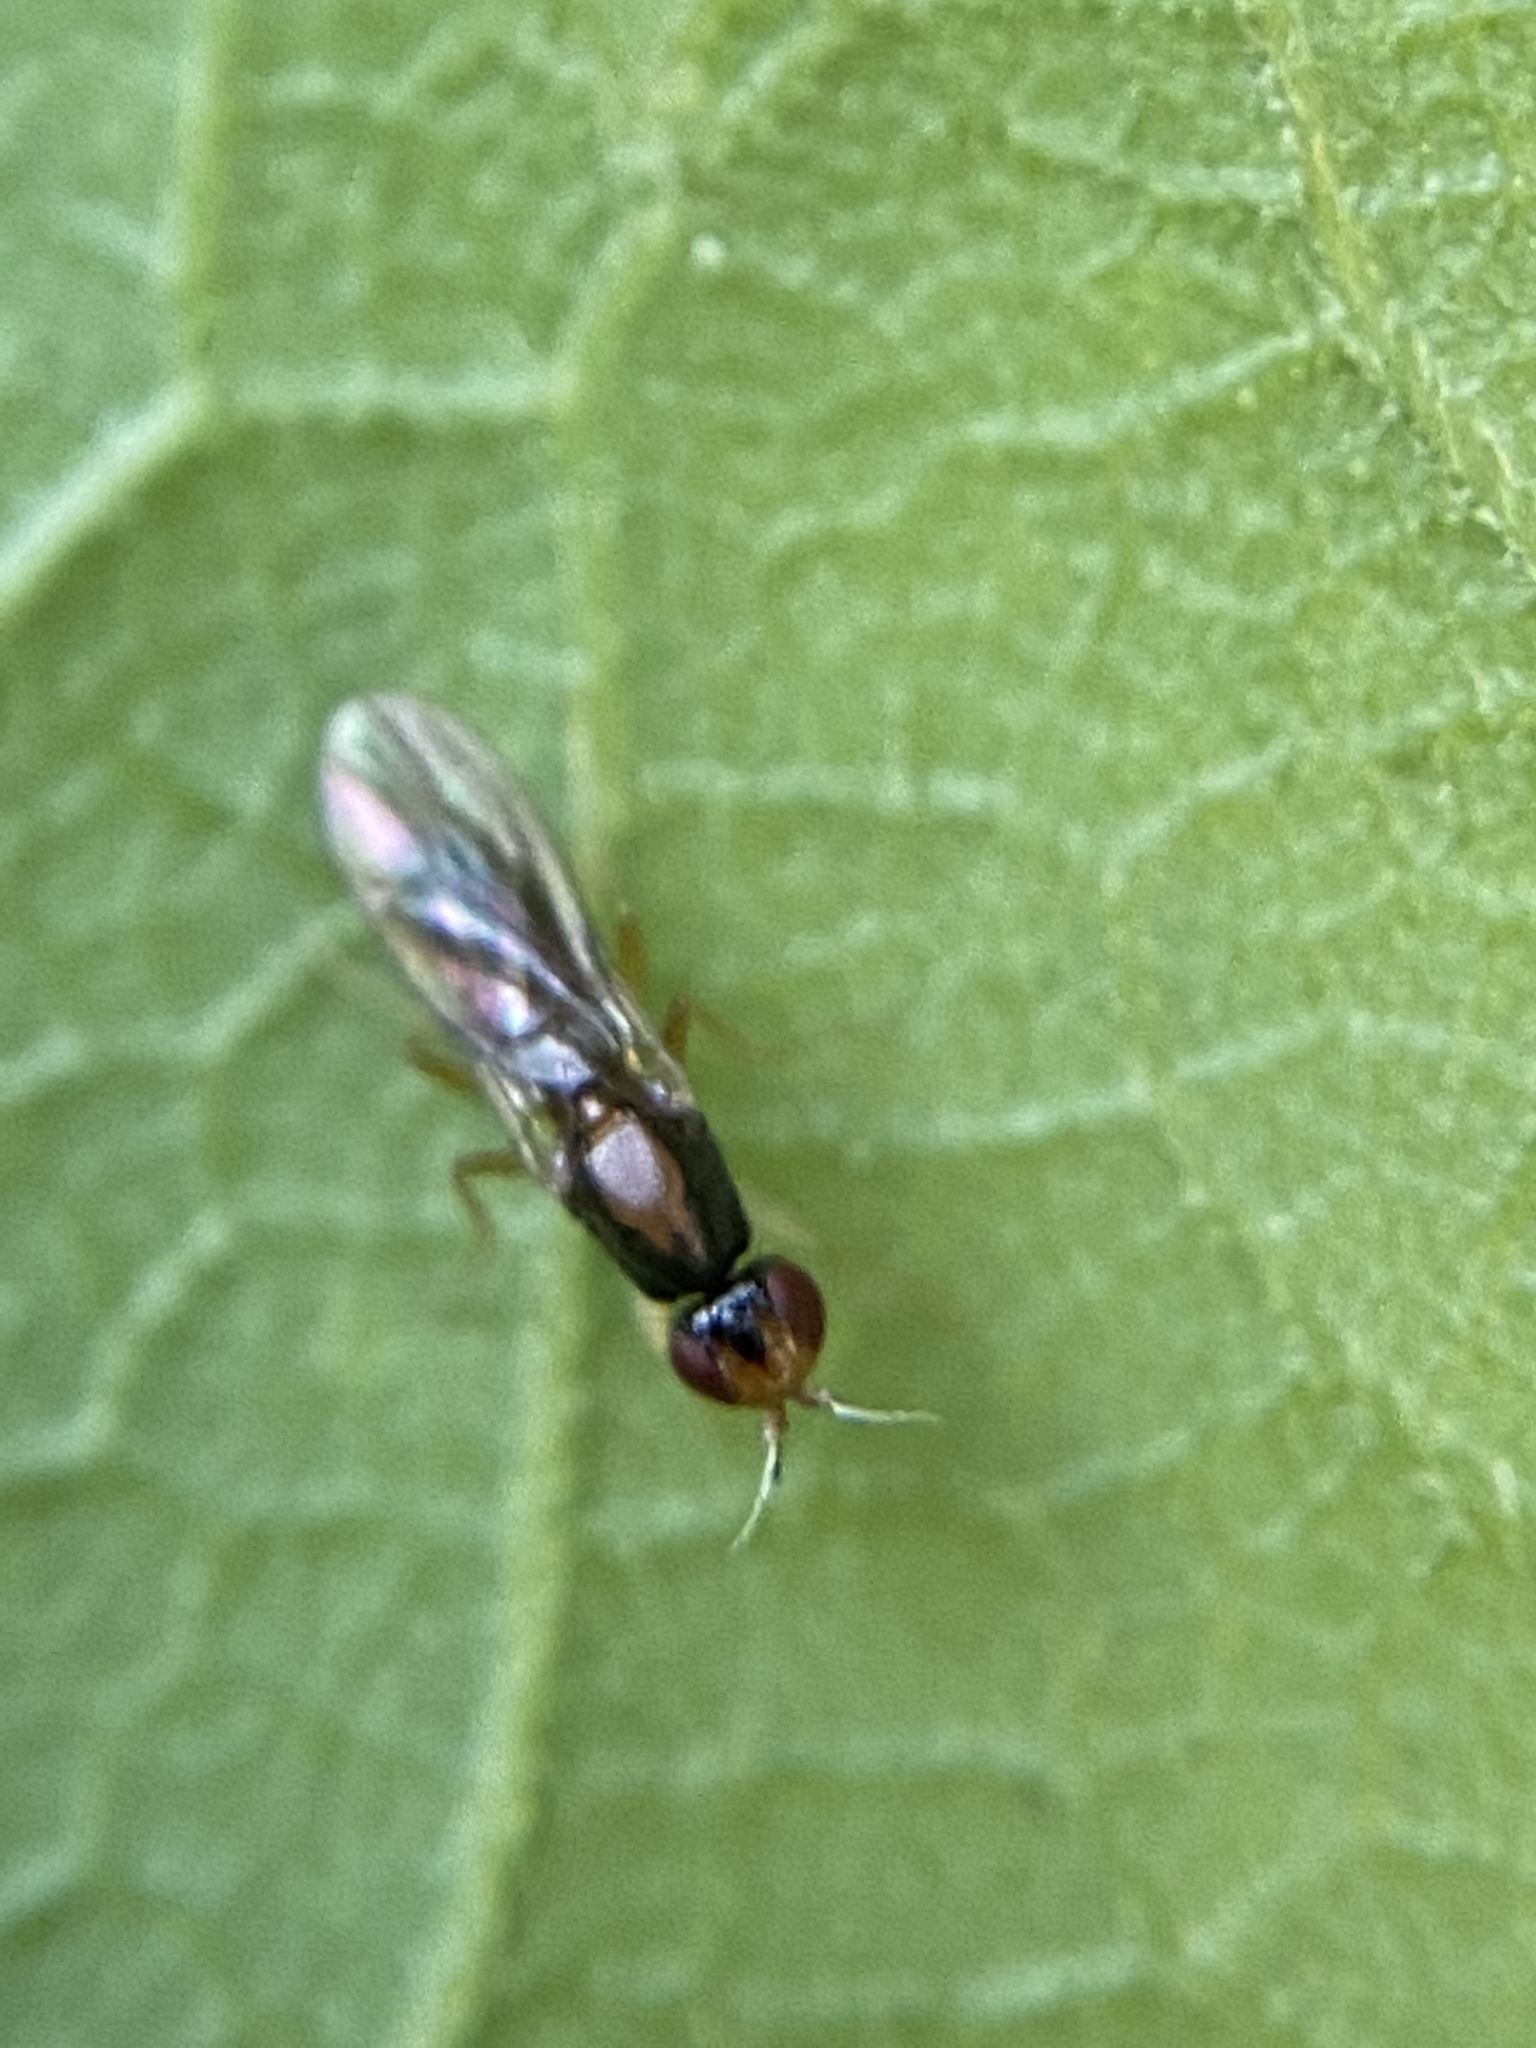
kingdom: Animalia
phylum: Arthropoda
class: Insecta
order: Diptera
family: Psilidae
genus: Psila
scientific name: Psila collaris
